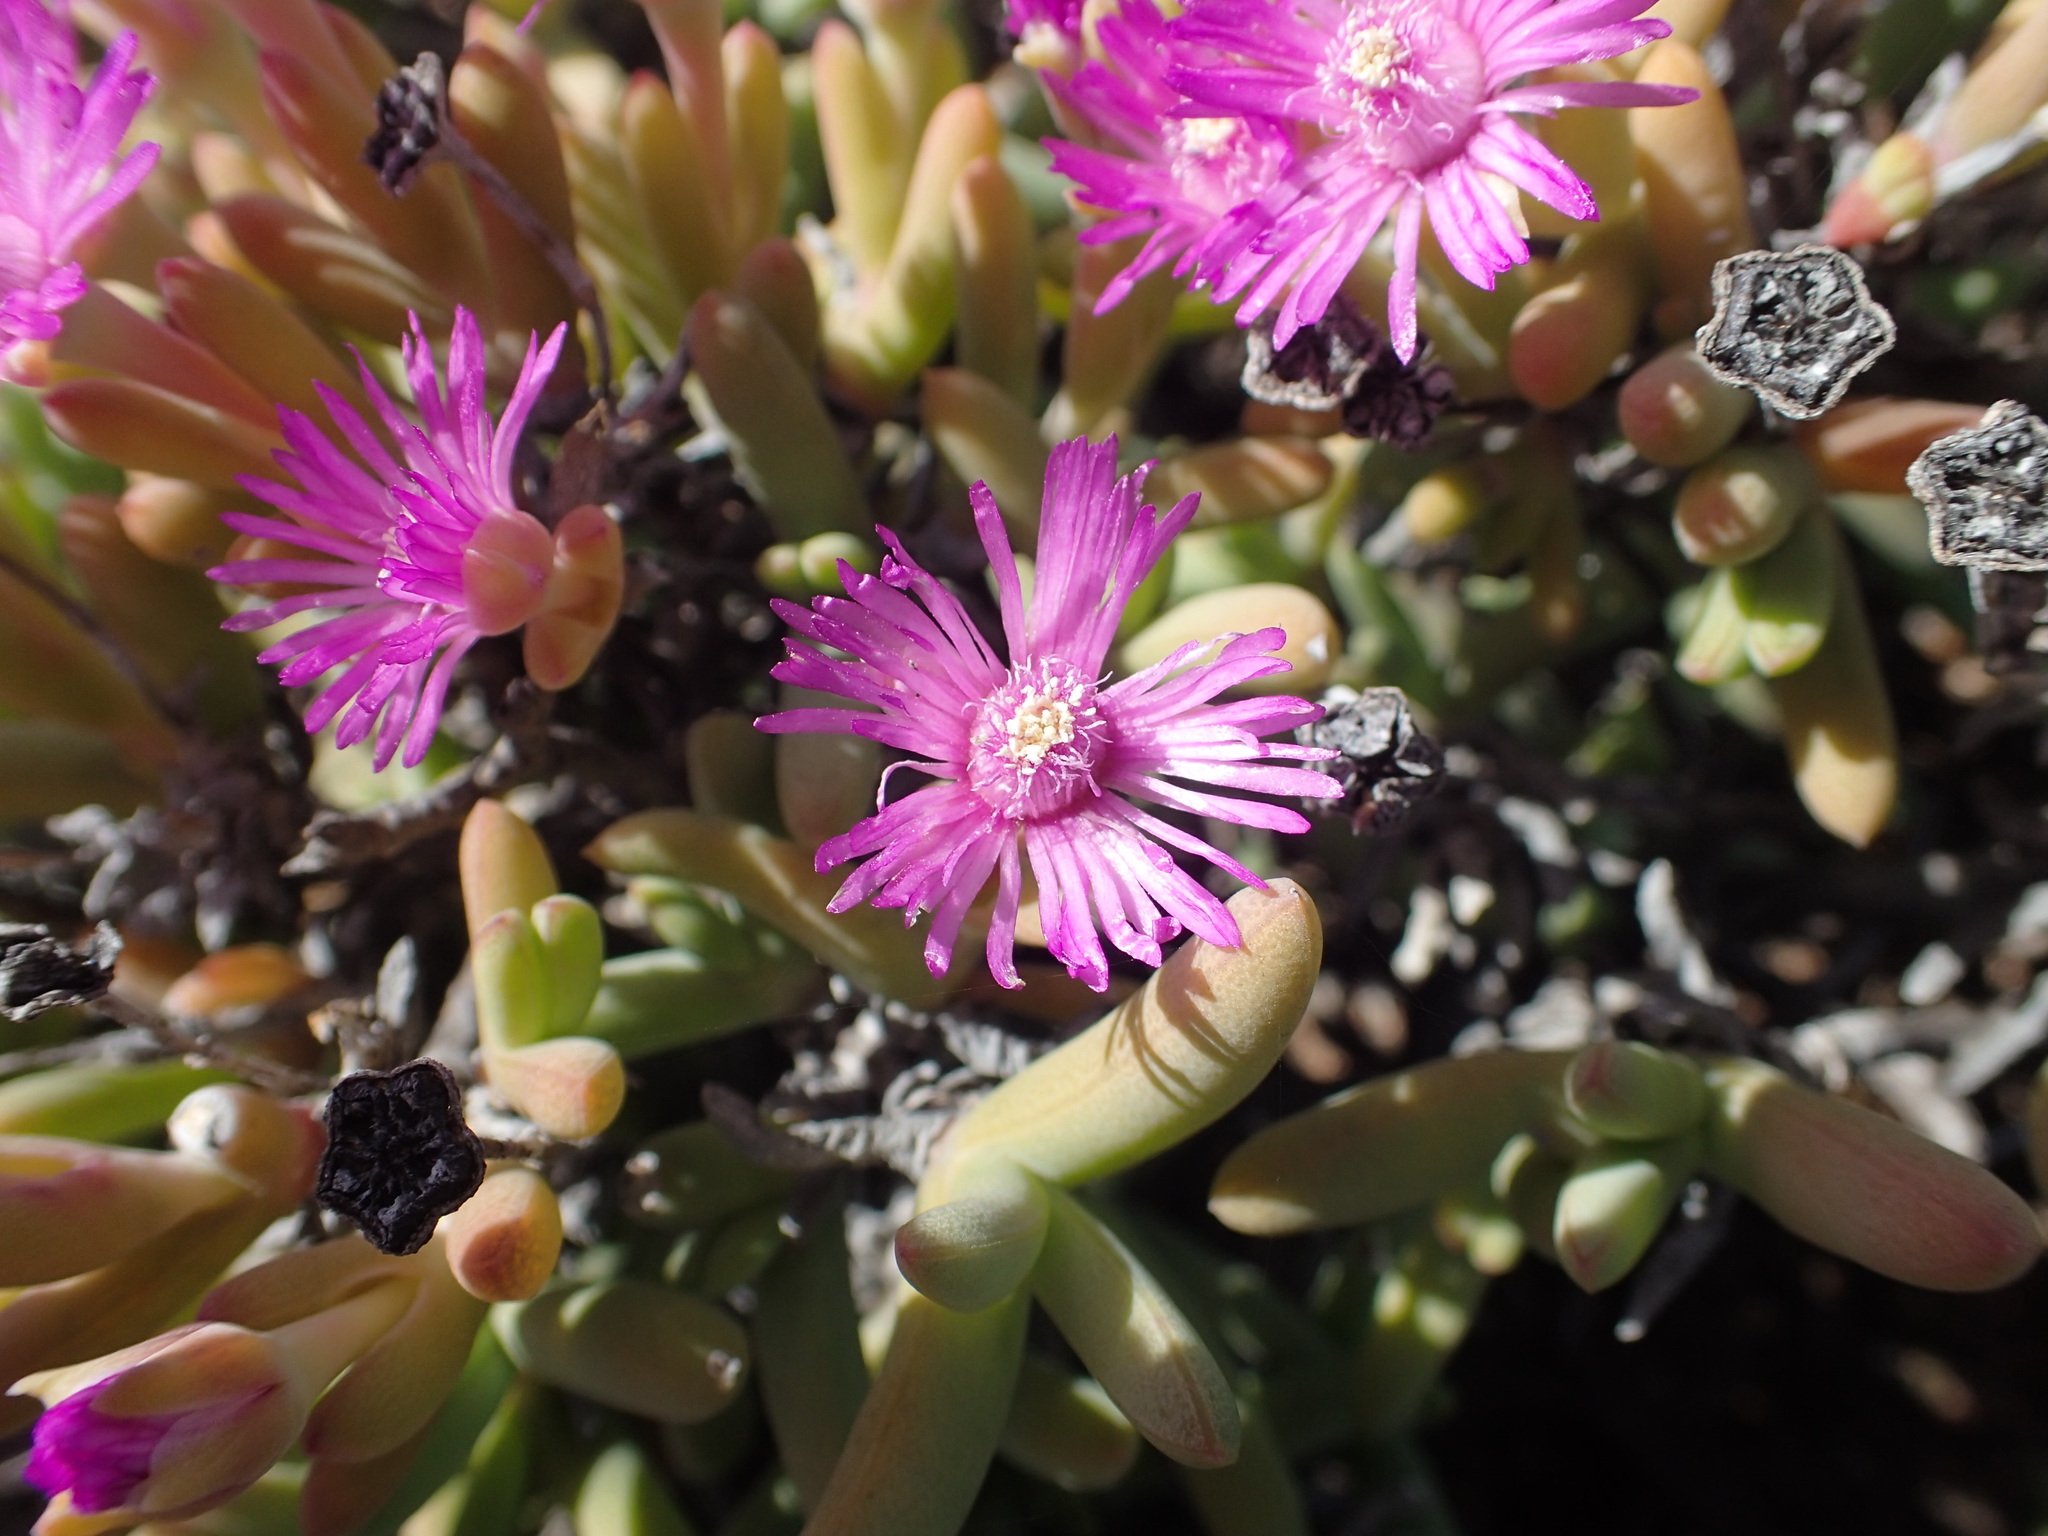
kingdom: Plantae
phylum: Tracheophyta
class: Magnoliopsida
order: Caryophyllales
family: Aizoaceae
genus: Ruschia
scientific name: Ruschia viridifolia
